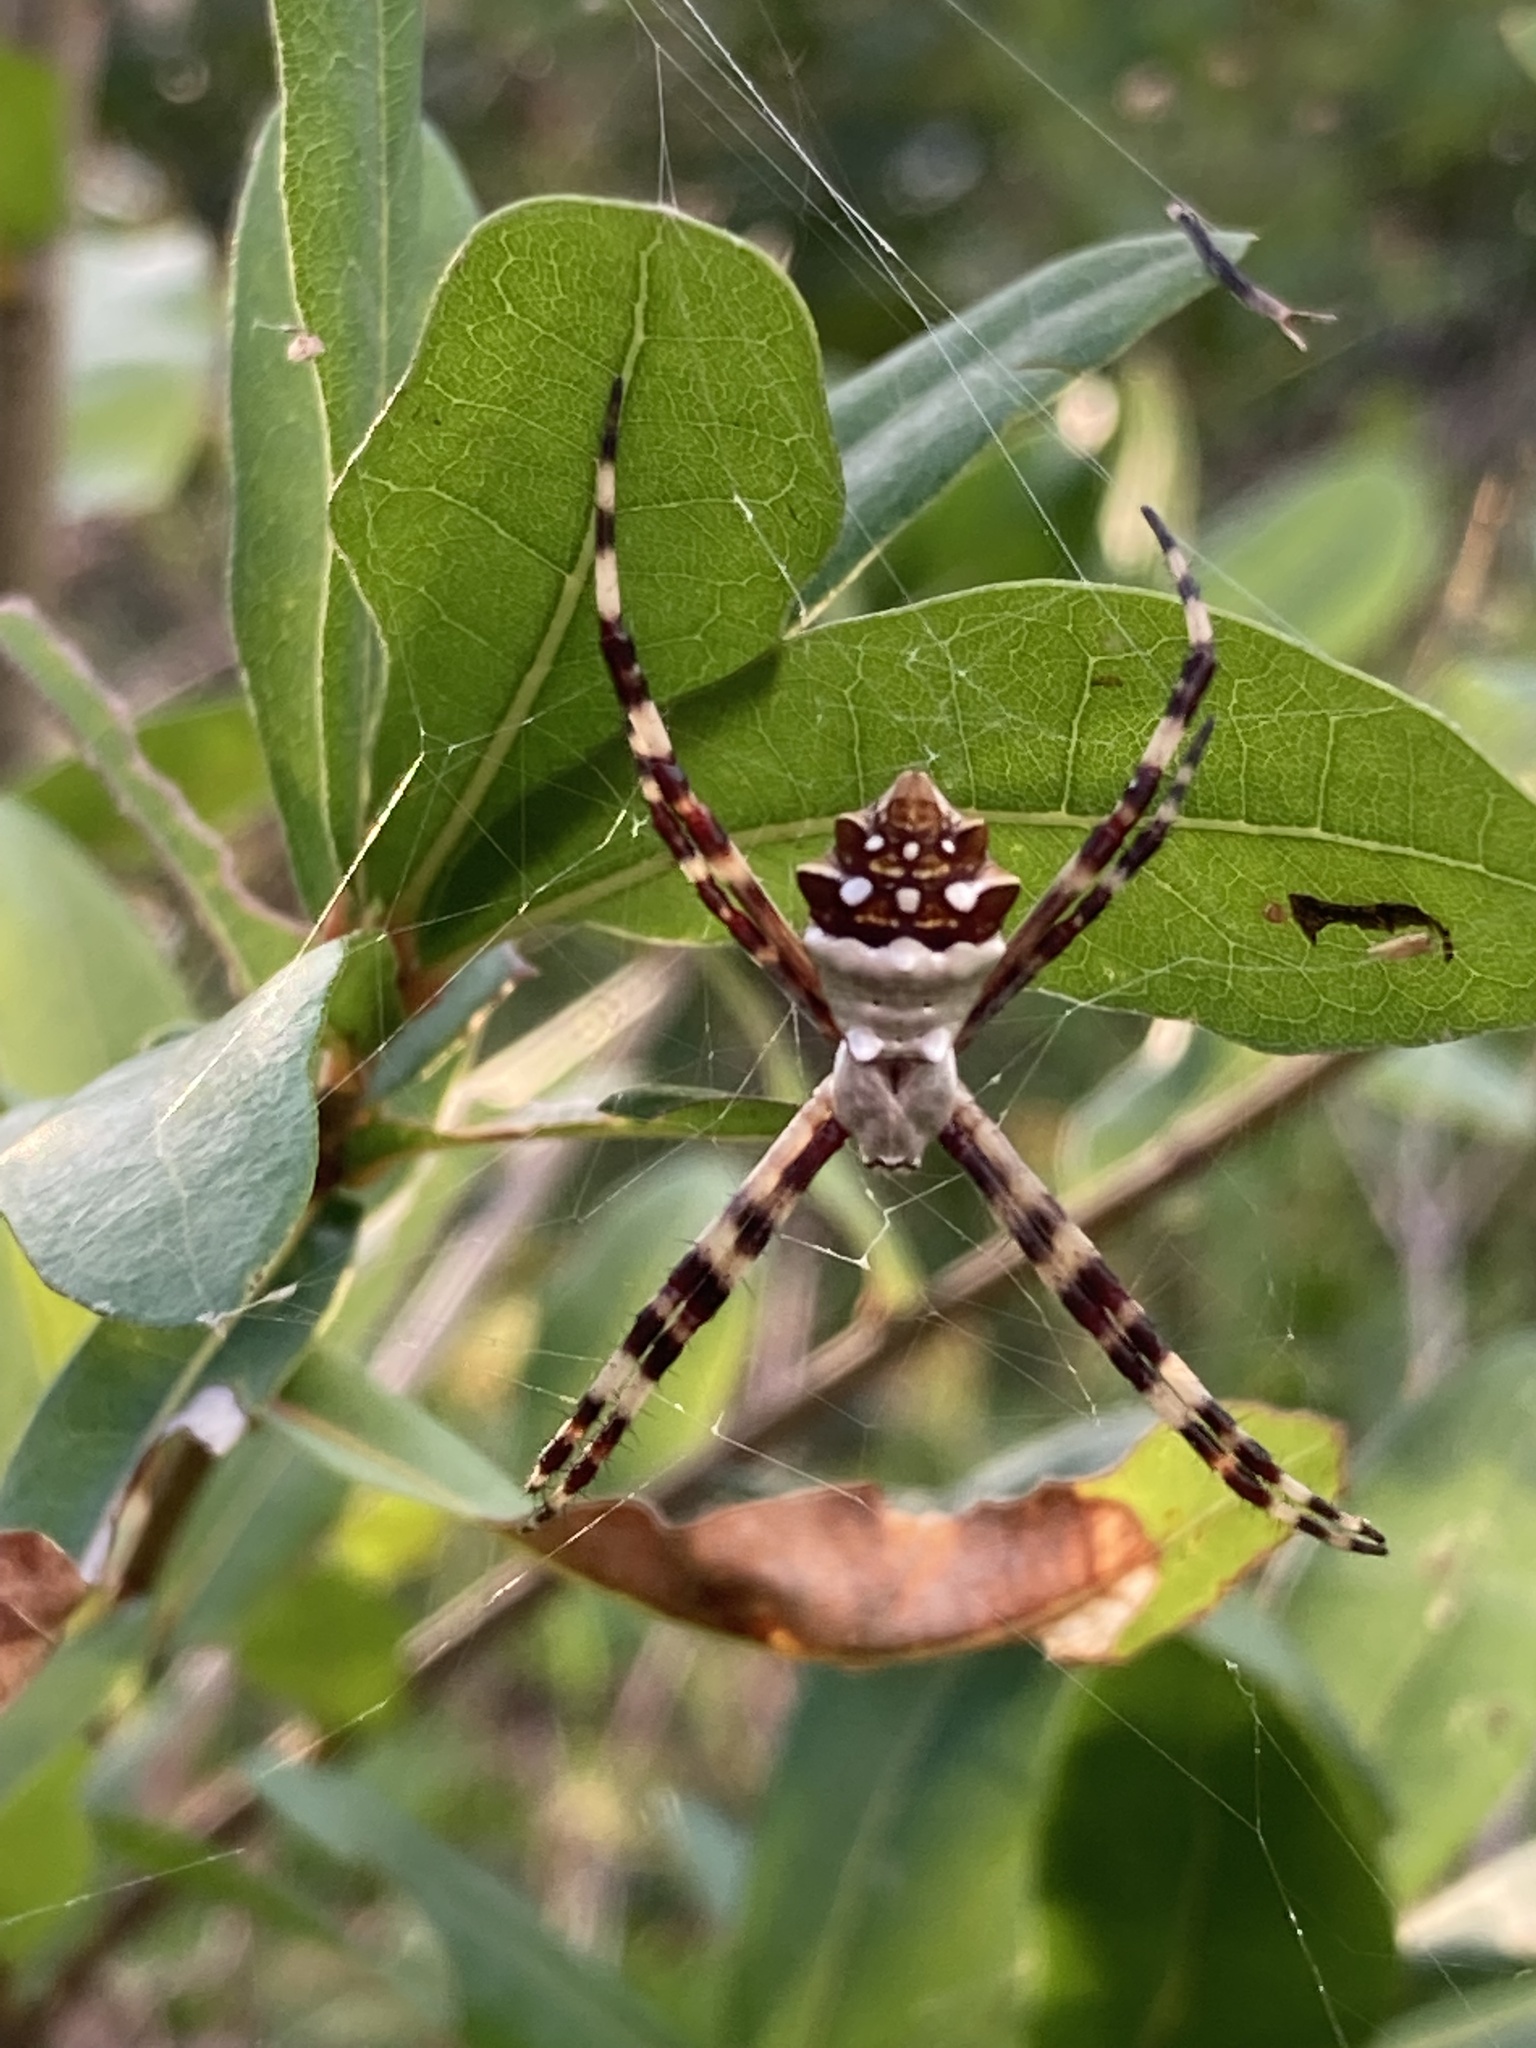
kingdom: Animalia
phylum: Arthropoda
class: Arachnida
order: Araneae
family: Araneidae
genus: Argiope
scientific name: Argiope argentata
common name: Orb weavers
